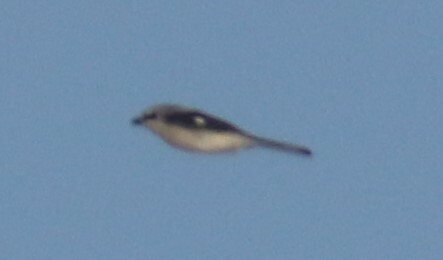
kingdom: Animalia
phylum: Chordata
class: Aves
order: Passeriformes
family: Laniidae
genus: Lanius
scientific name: Lanius borealis
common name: Northern shrike
